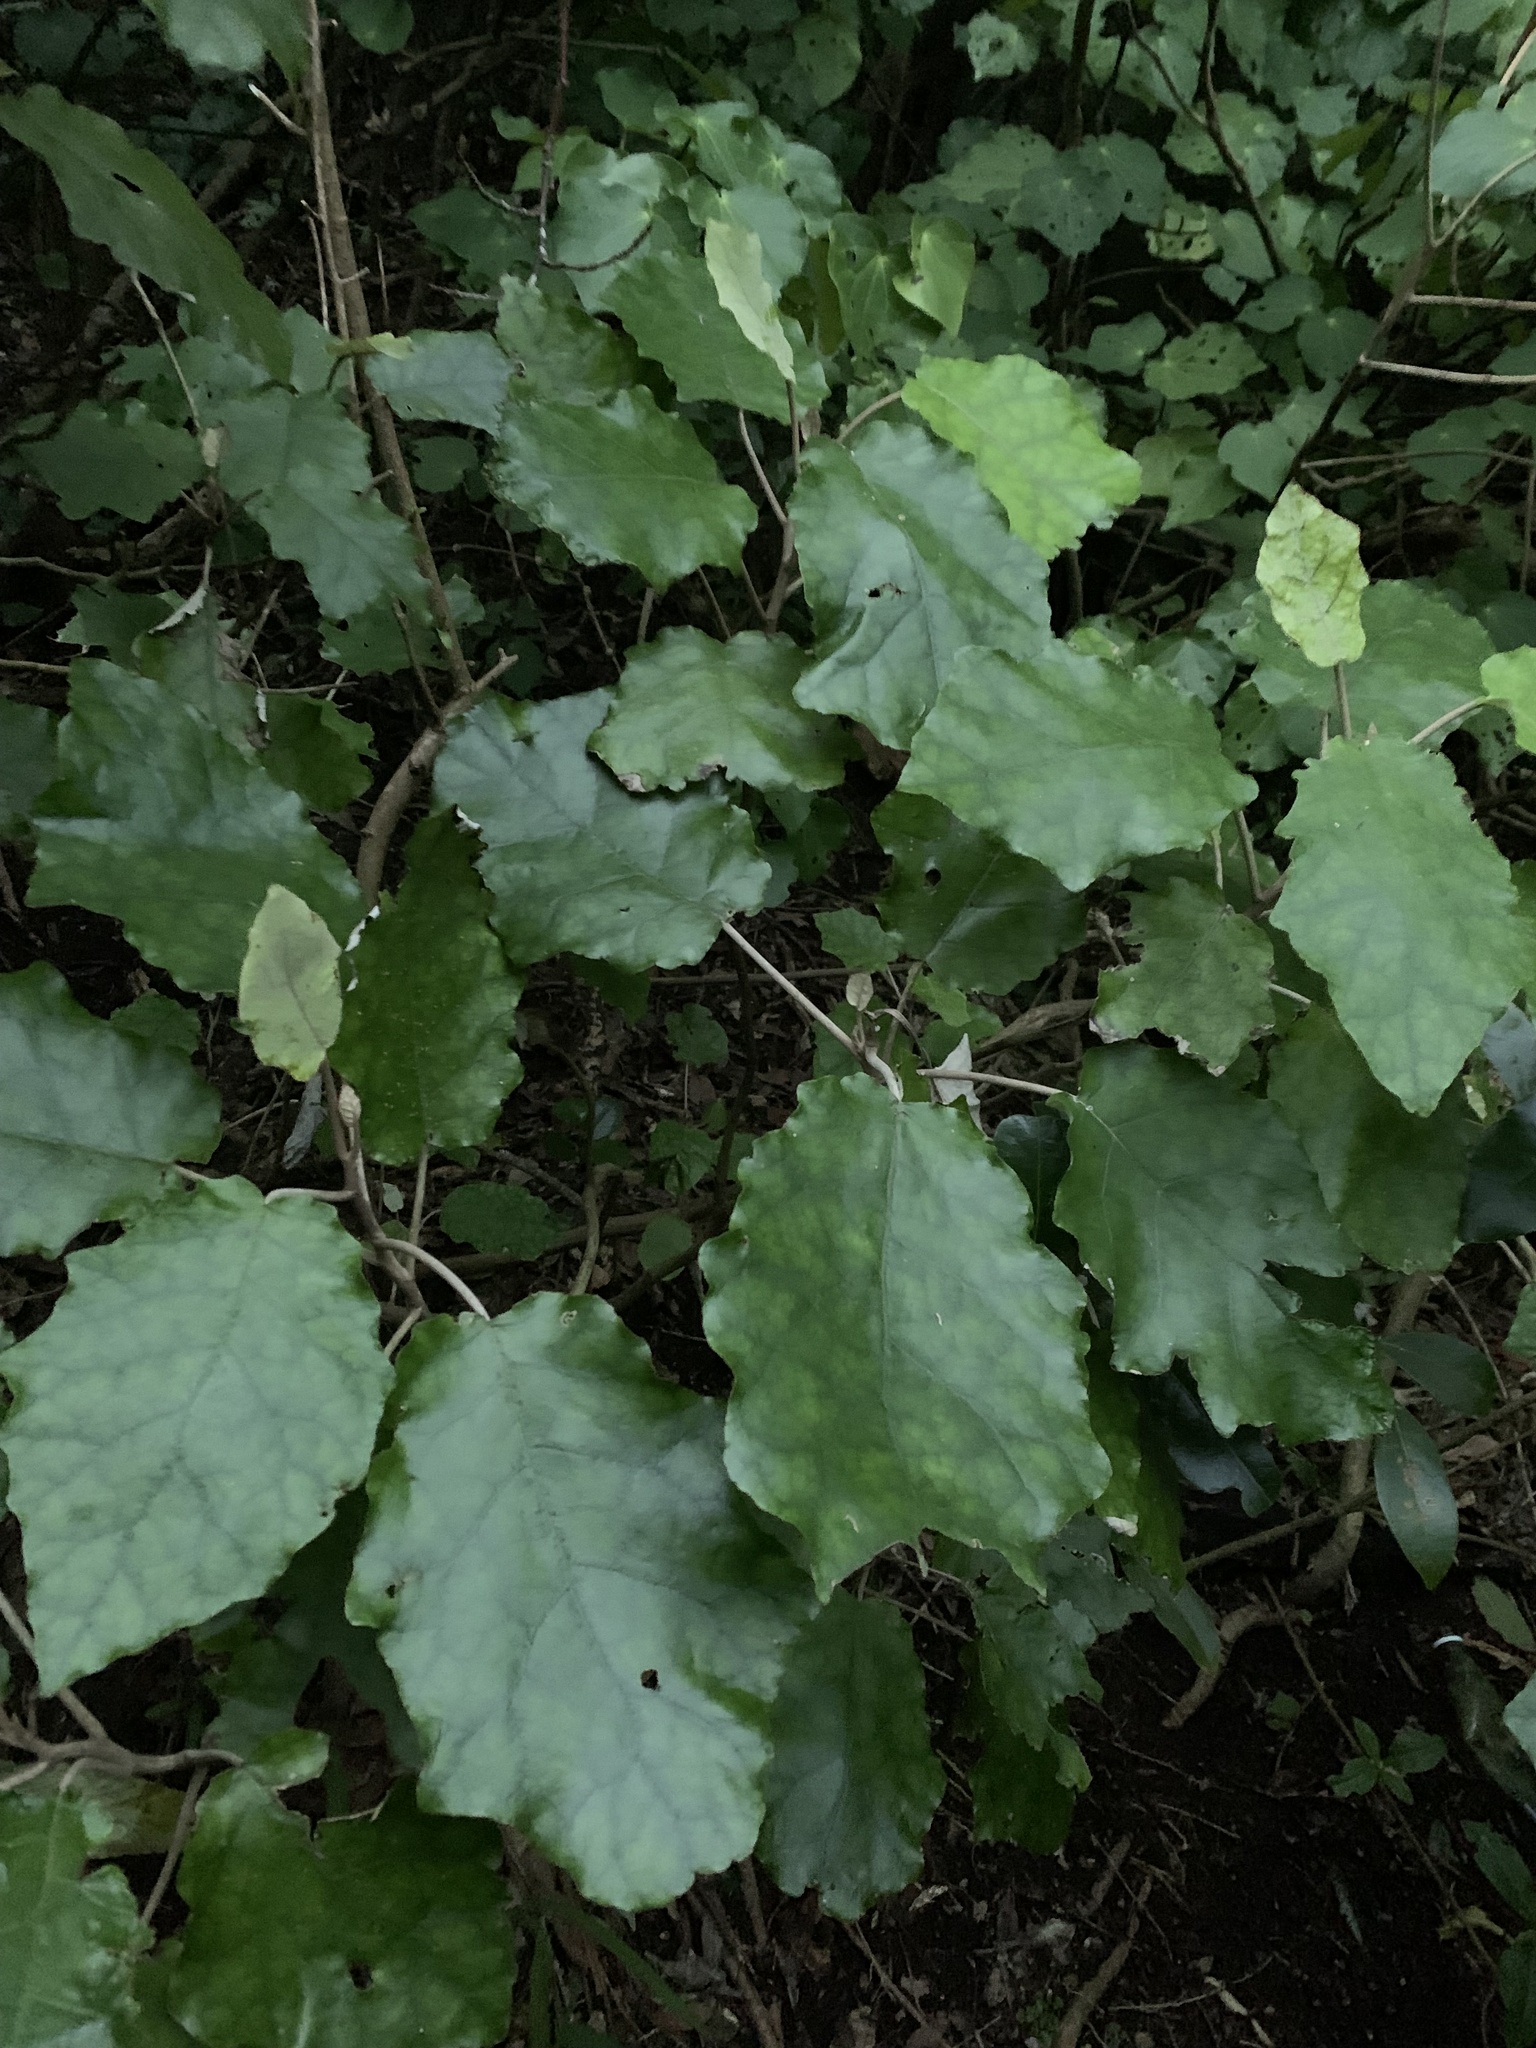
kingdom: Plantae
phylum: Tracheophyta
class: Magnoliopsida
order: Asterales
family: Asteraceae
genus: Brachyglottis
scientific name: Brachyglottis repanda
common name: Hedge ragwort
